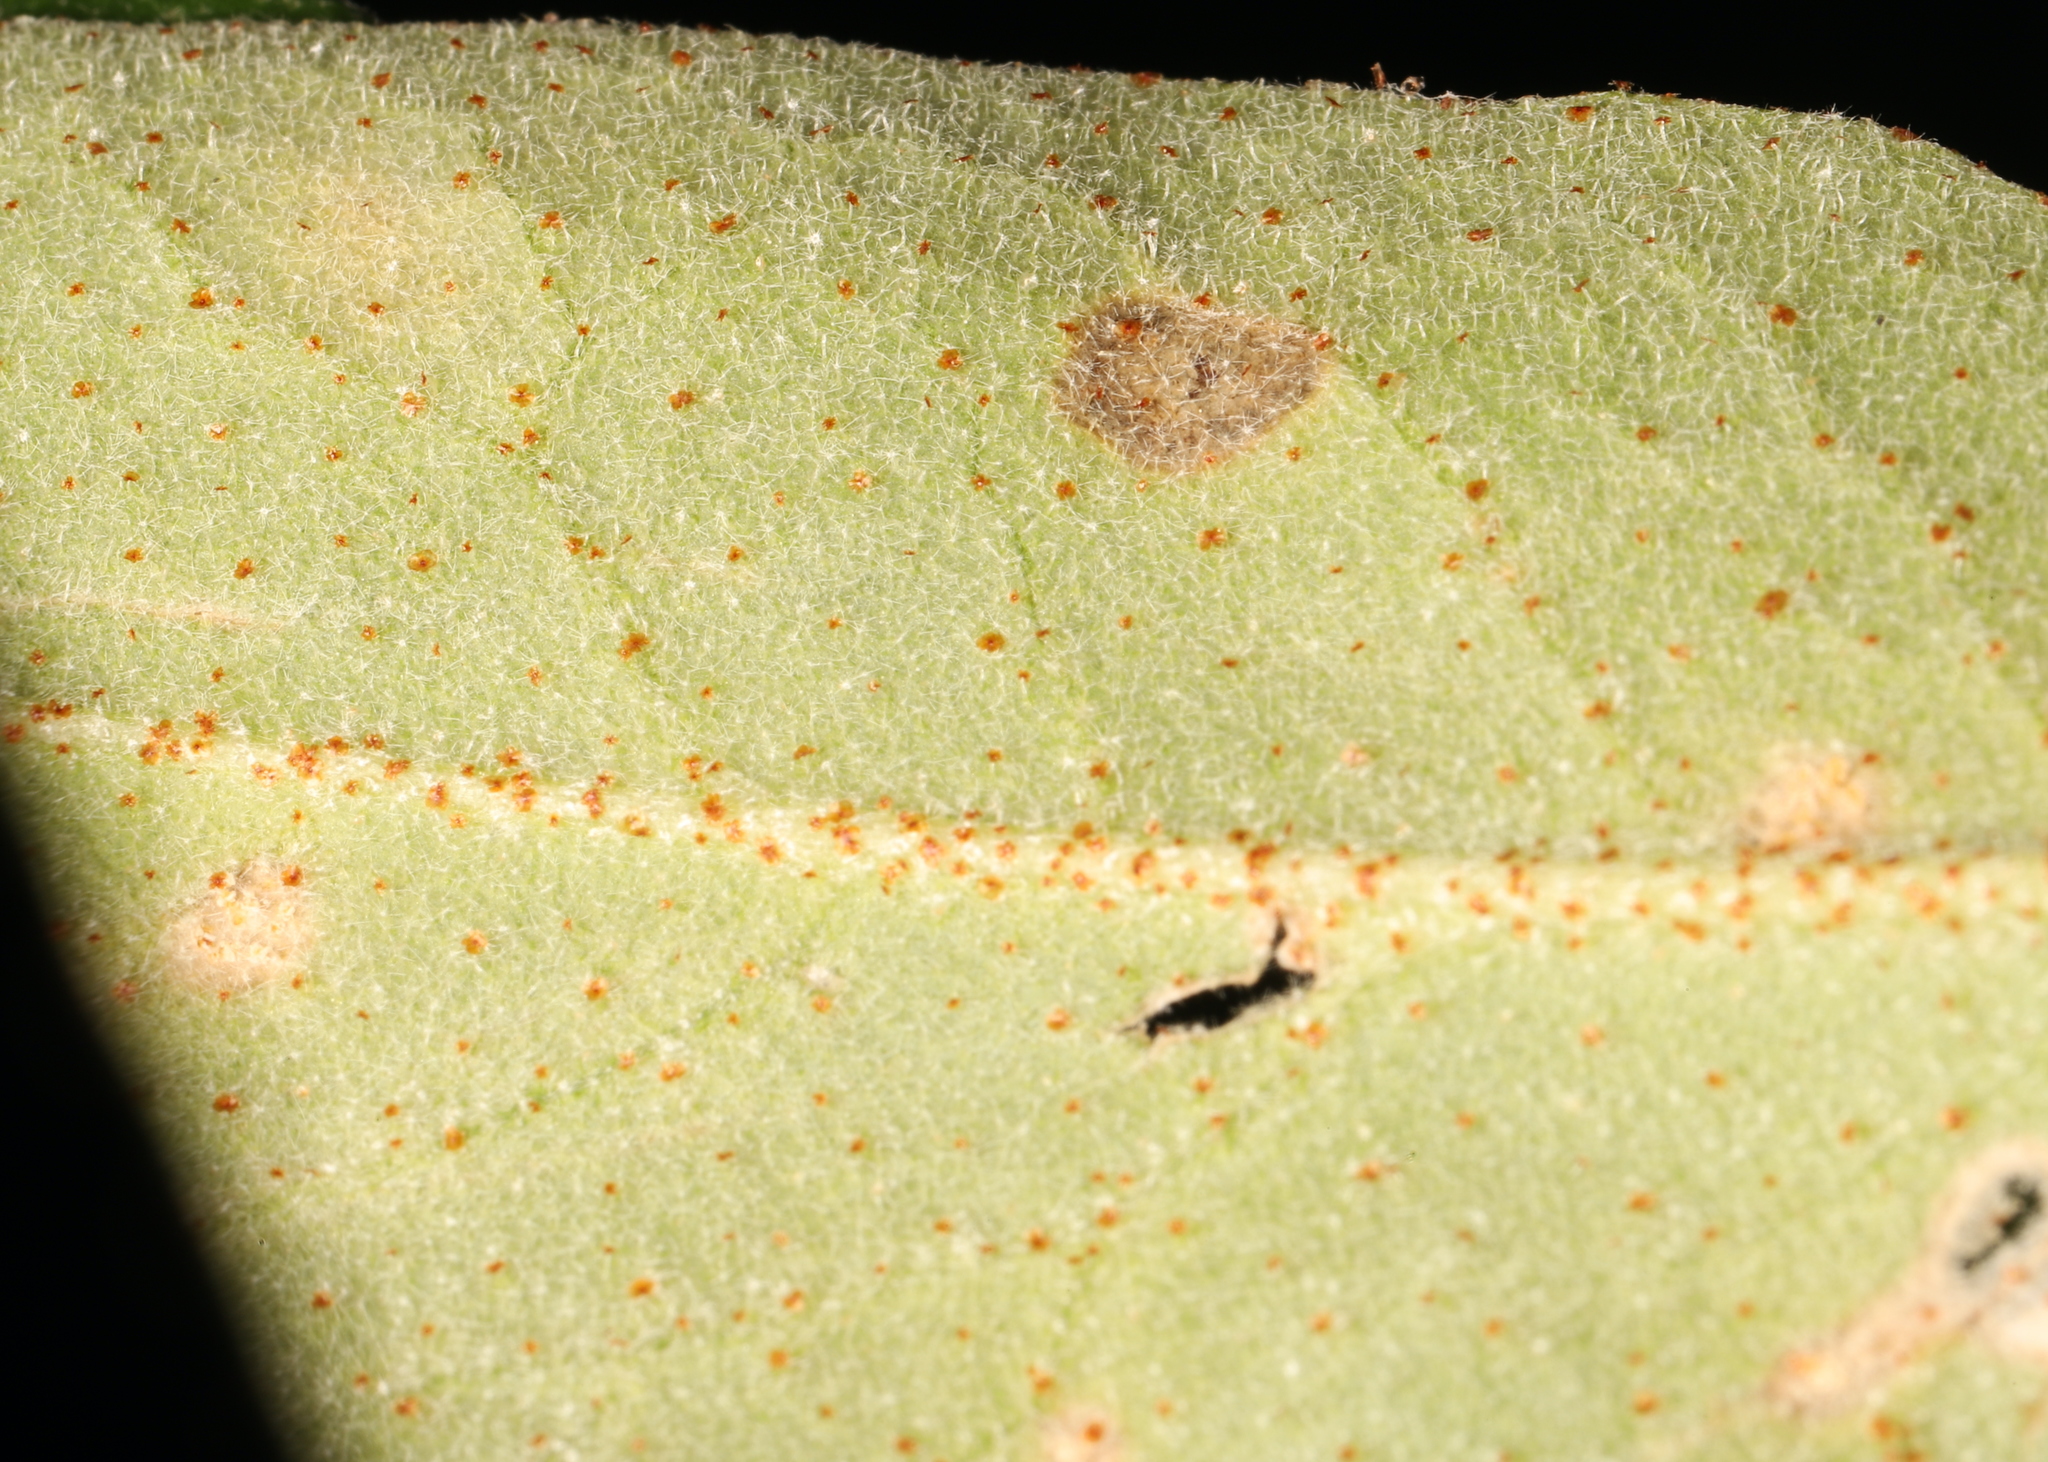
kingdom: Plantae
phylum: Tracheophyta
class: Magnoliopsida
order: Rosales
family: Elaeagnaceae
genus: Shepherdia
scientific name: Shepherdia canadensis
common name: Soapberry
